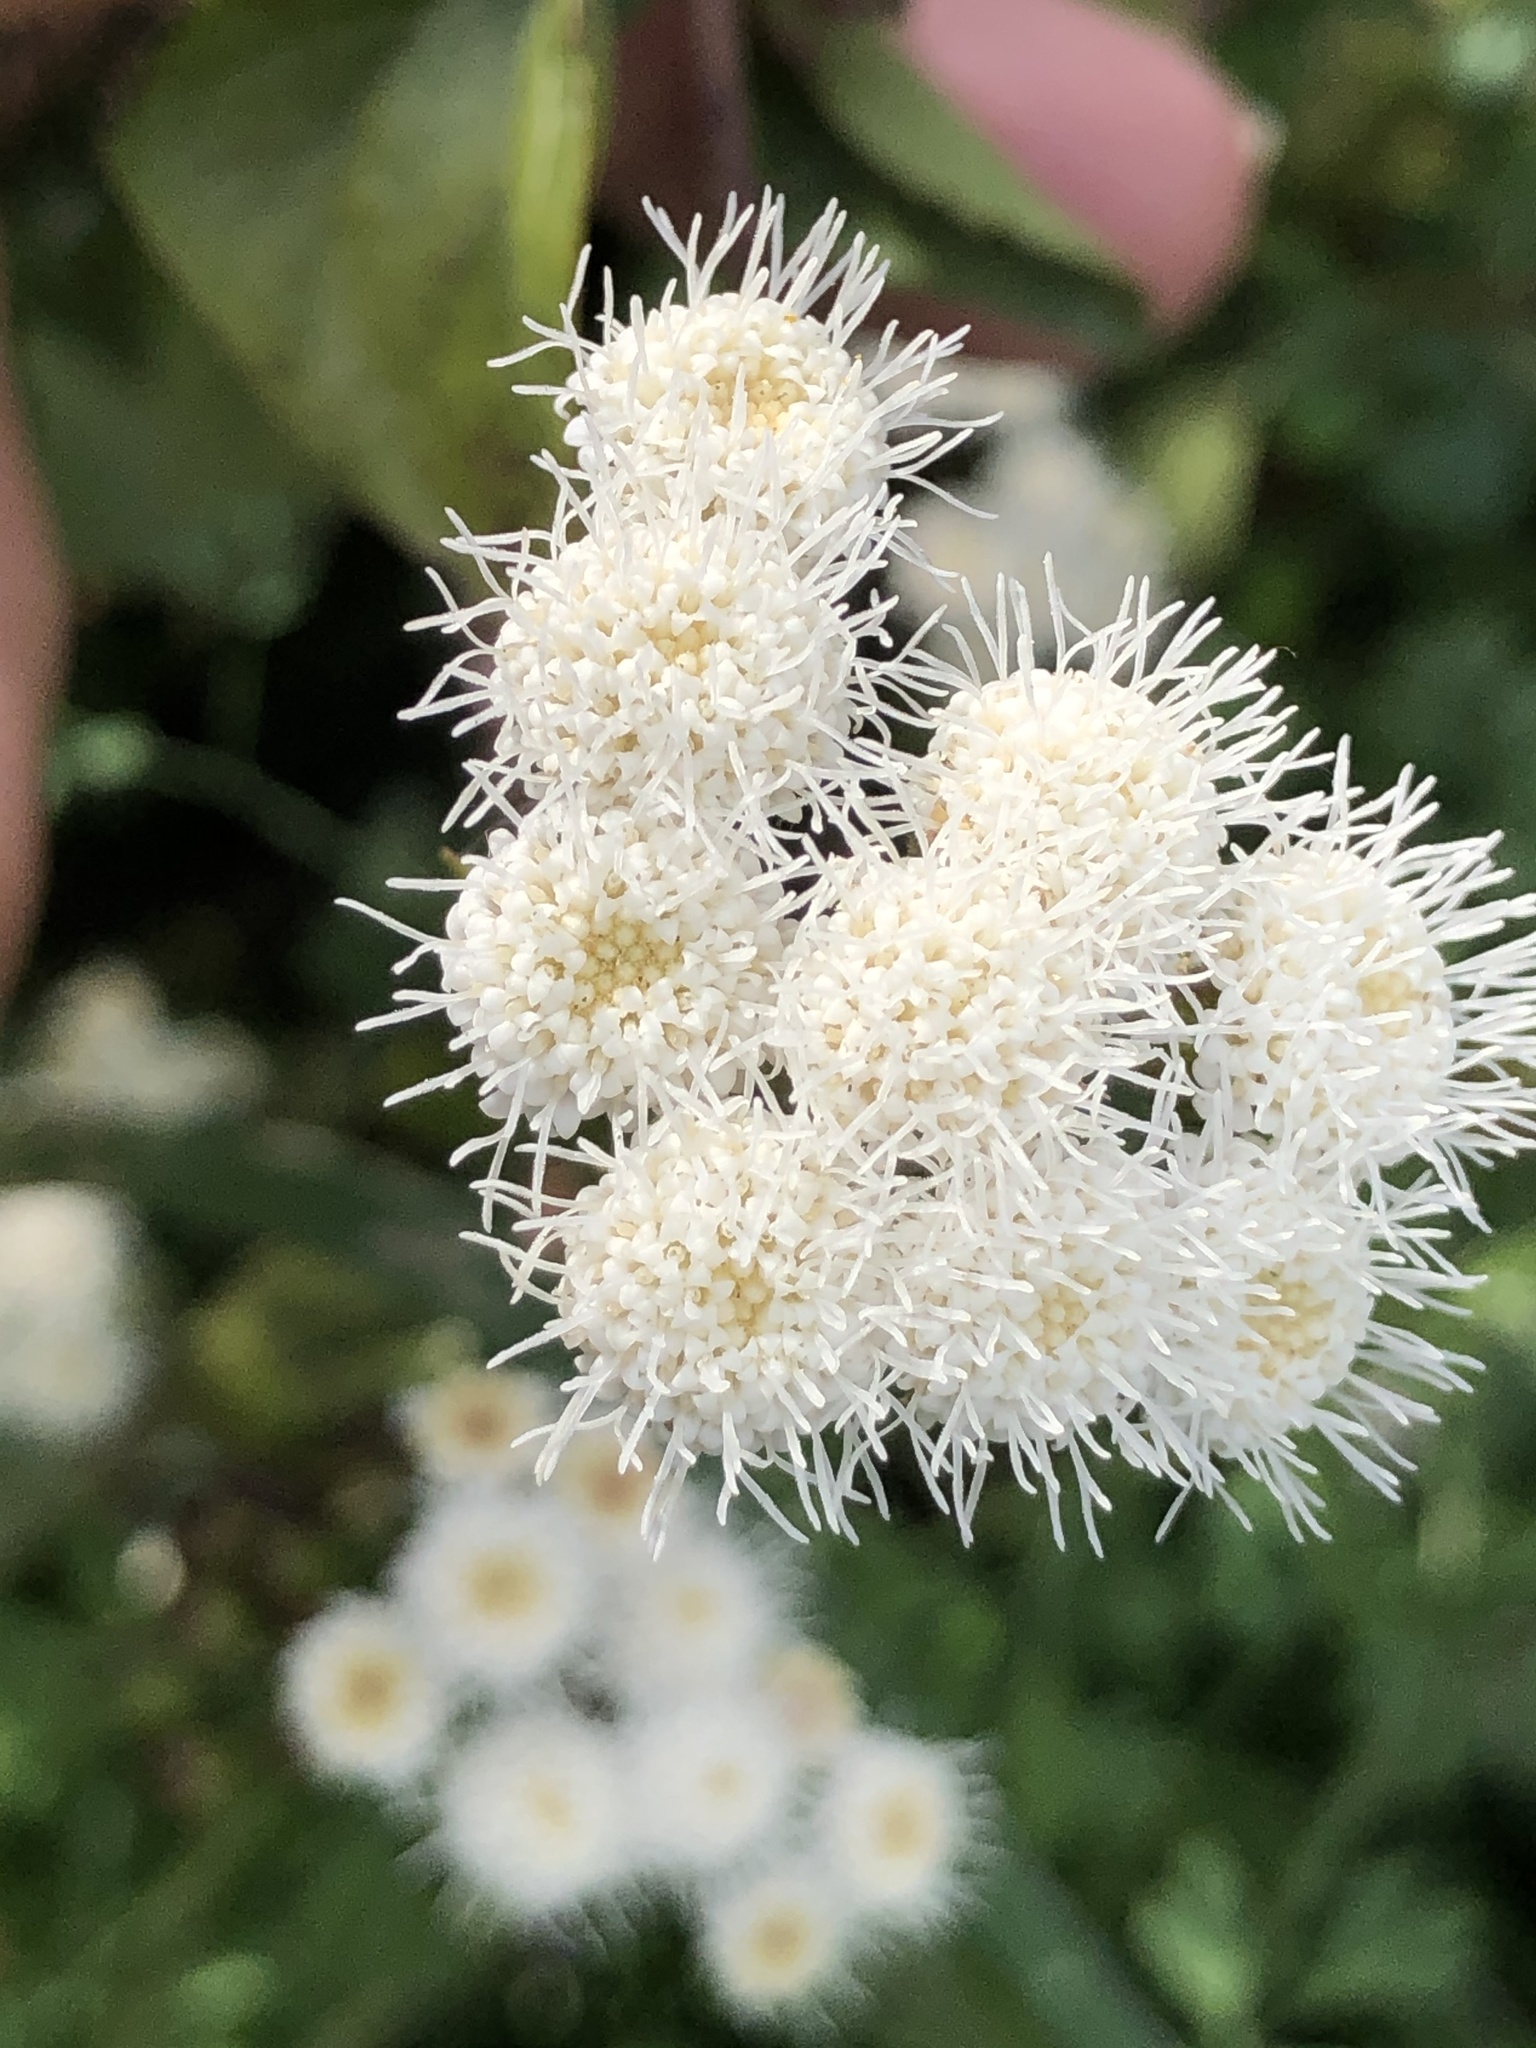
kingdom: Plantae
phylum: Tracheophyta
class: Magnoliopsida
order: Asterales
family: Asteraceae
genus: Ageratina
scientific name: Ageratina adenophora
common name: Sticky snakeroot
